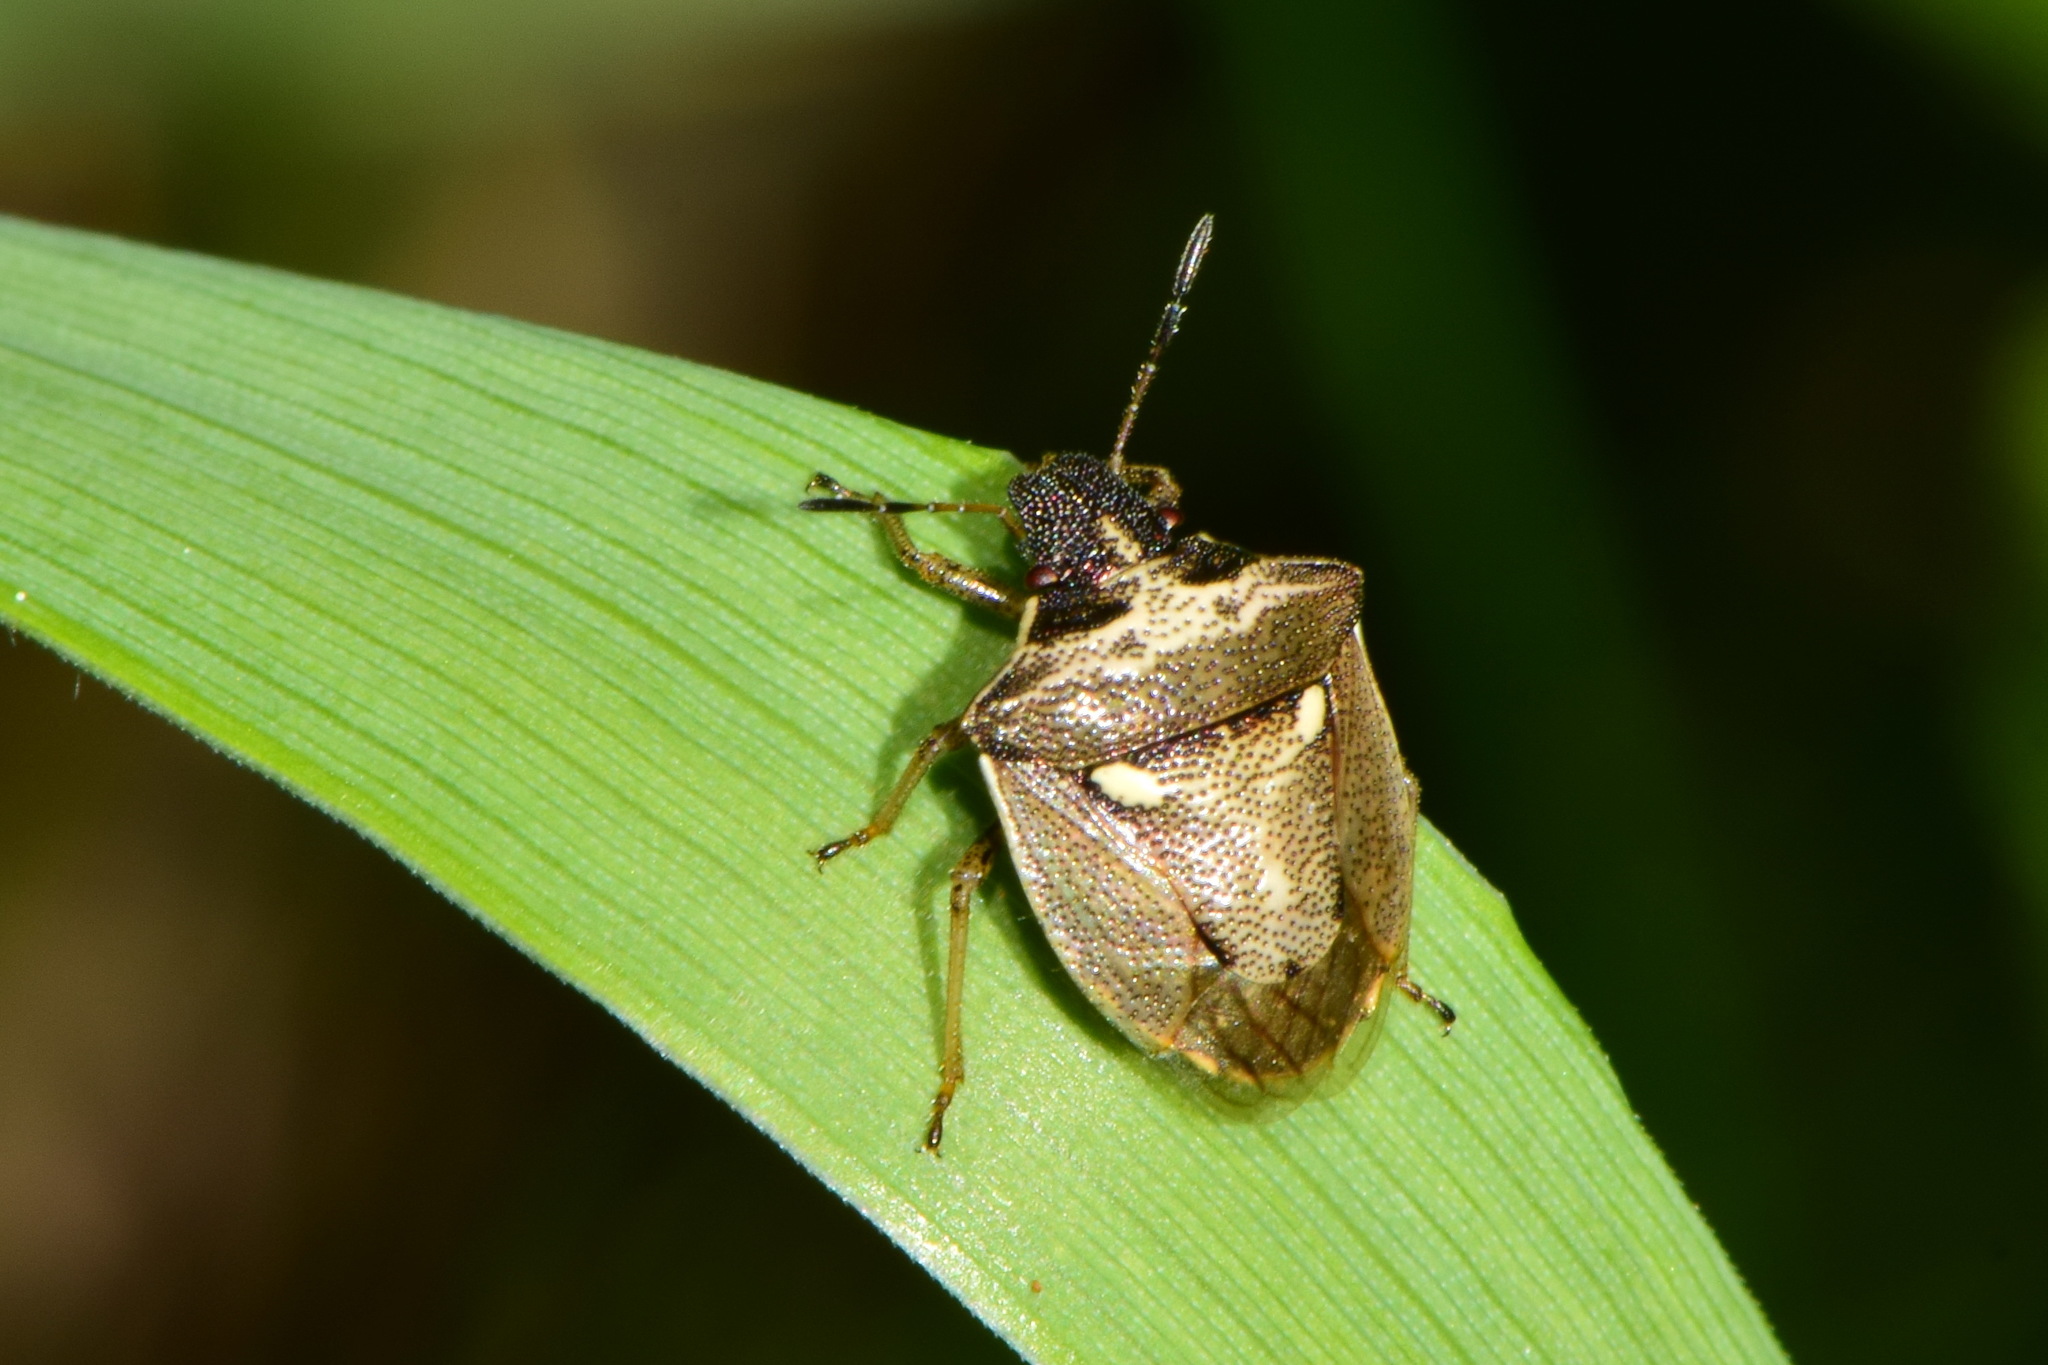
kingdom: Animalia
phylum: Arthropoda
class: Insecta
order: Hemiptera
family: Pentatomidae
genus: Eysarcoris
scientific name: Eysarcoris aeneus
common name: New forest shieldbug
